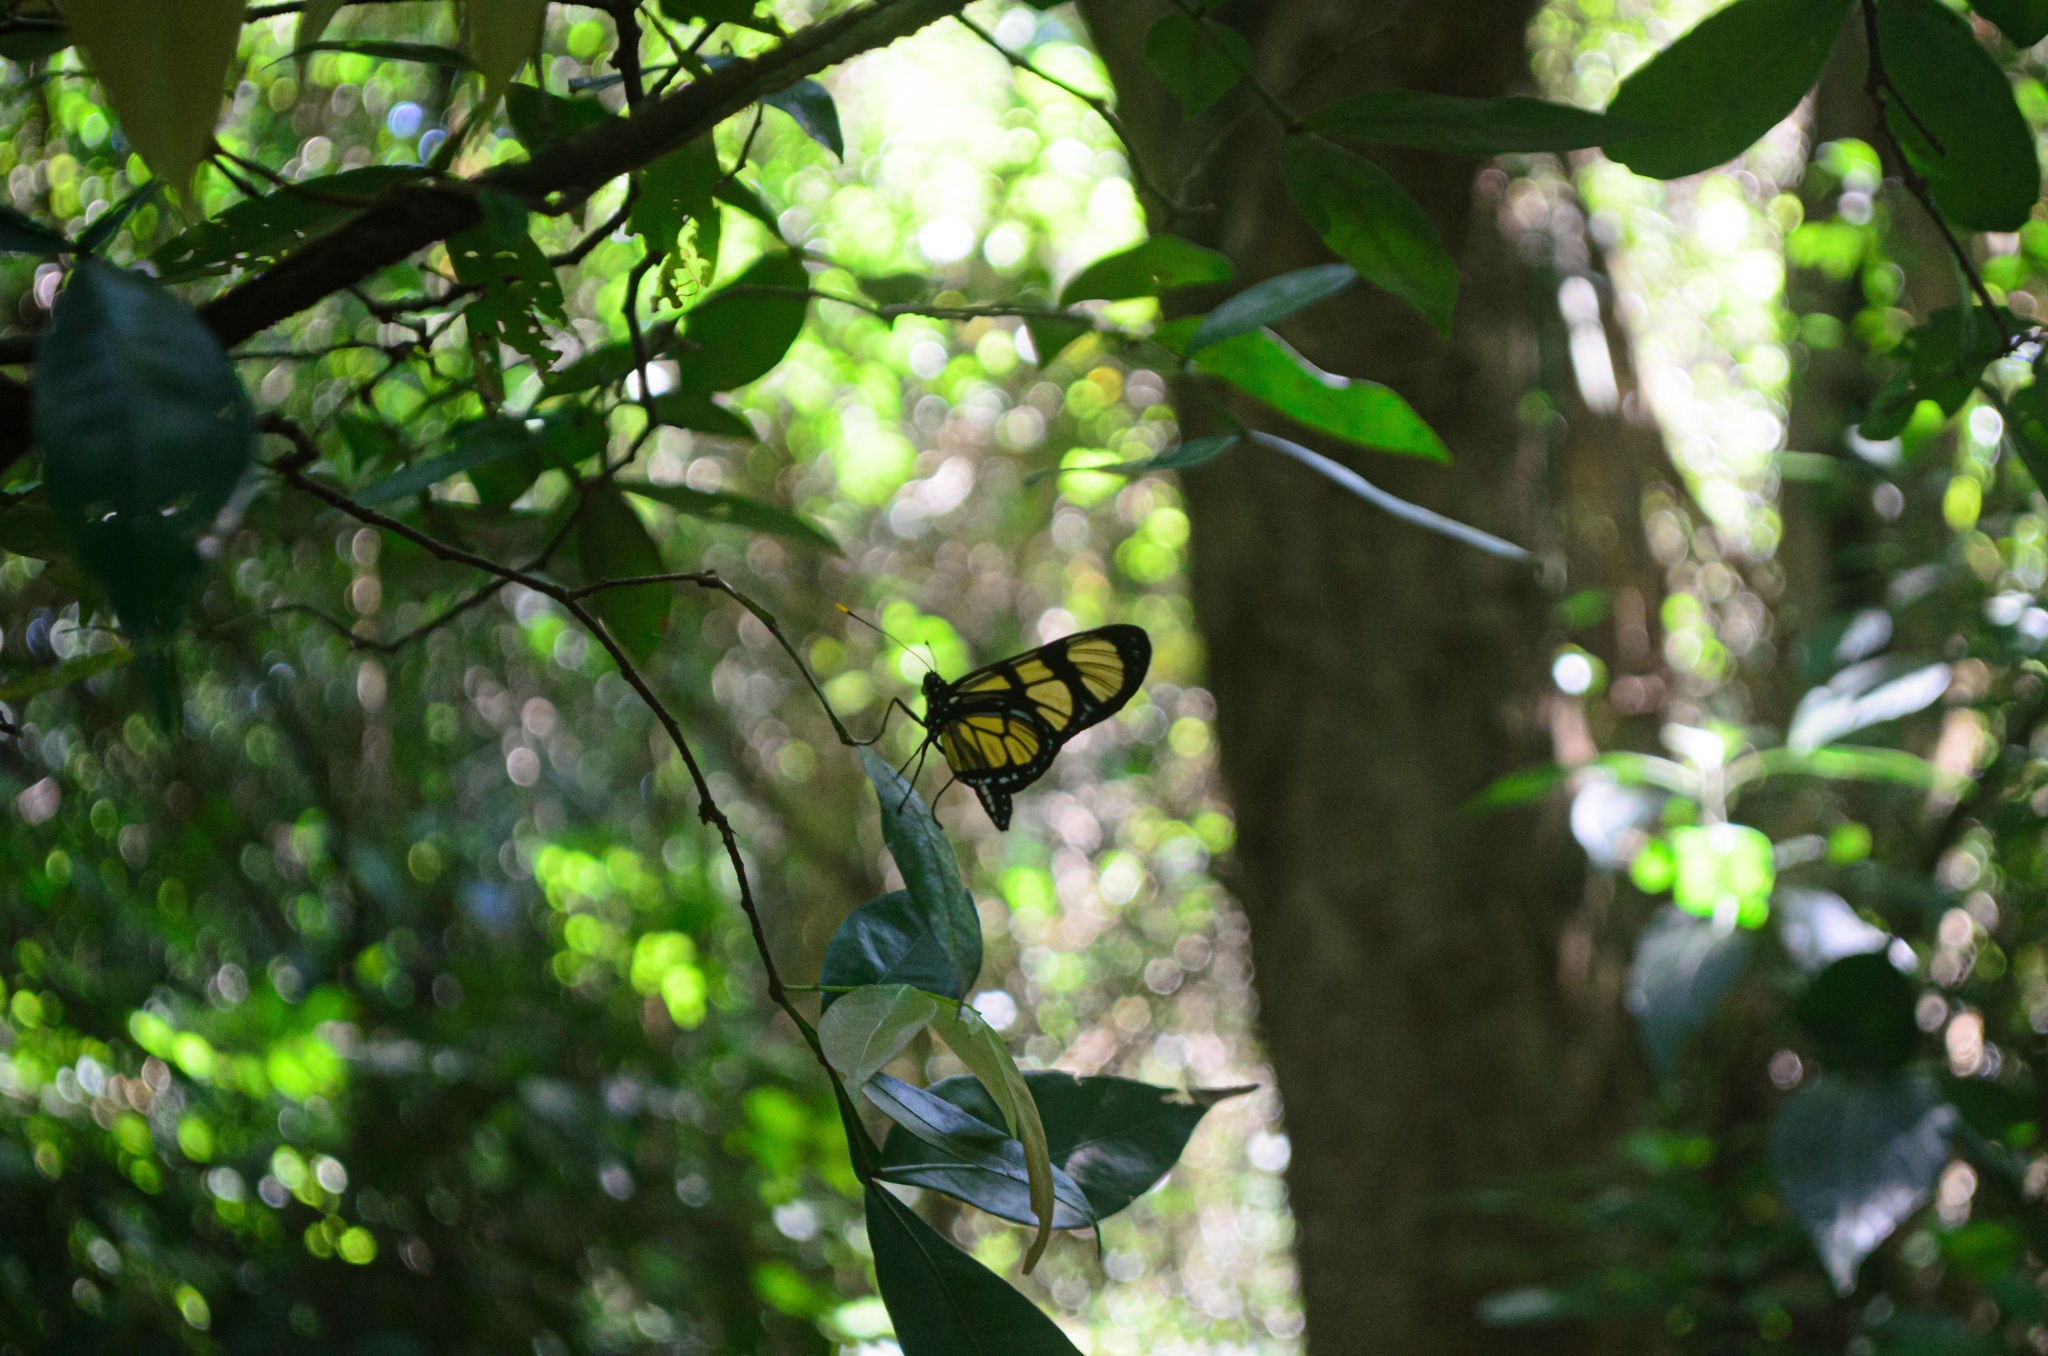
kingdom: Animalia
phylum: Arthropoda
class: Insecta
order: Lepidoptera
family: Nymphalidae
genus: Methona
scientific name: Methona themisto
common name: Themisto amberwing
